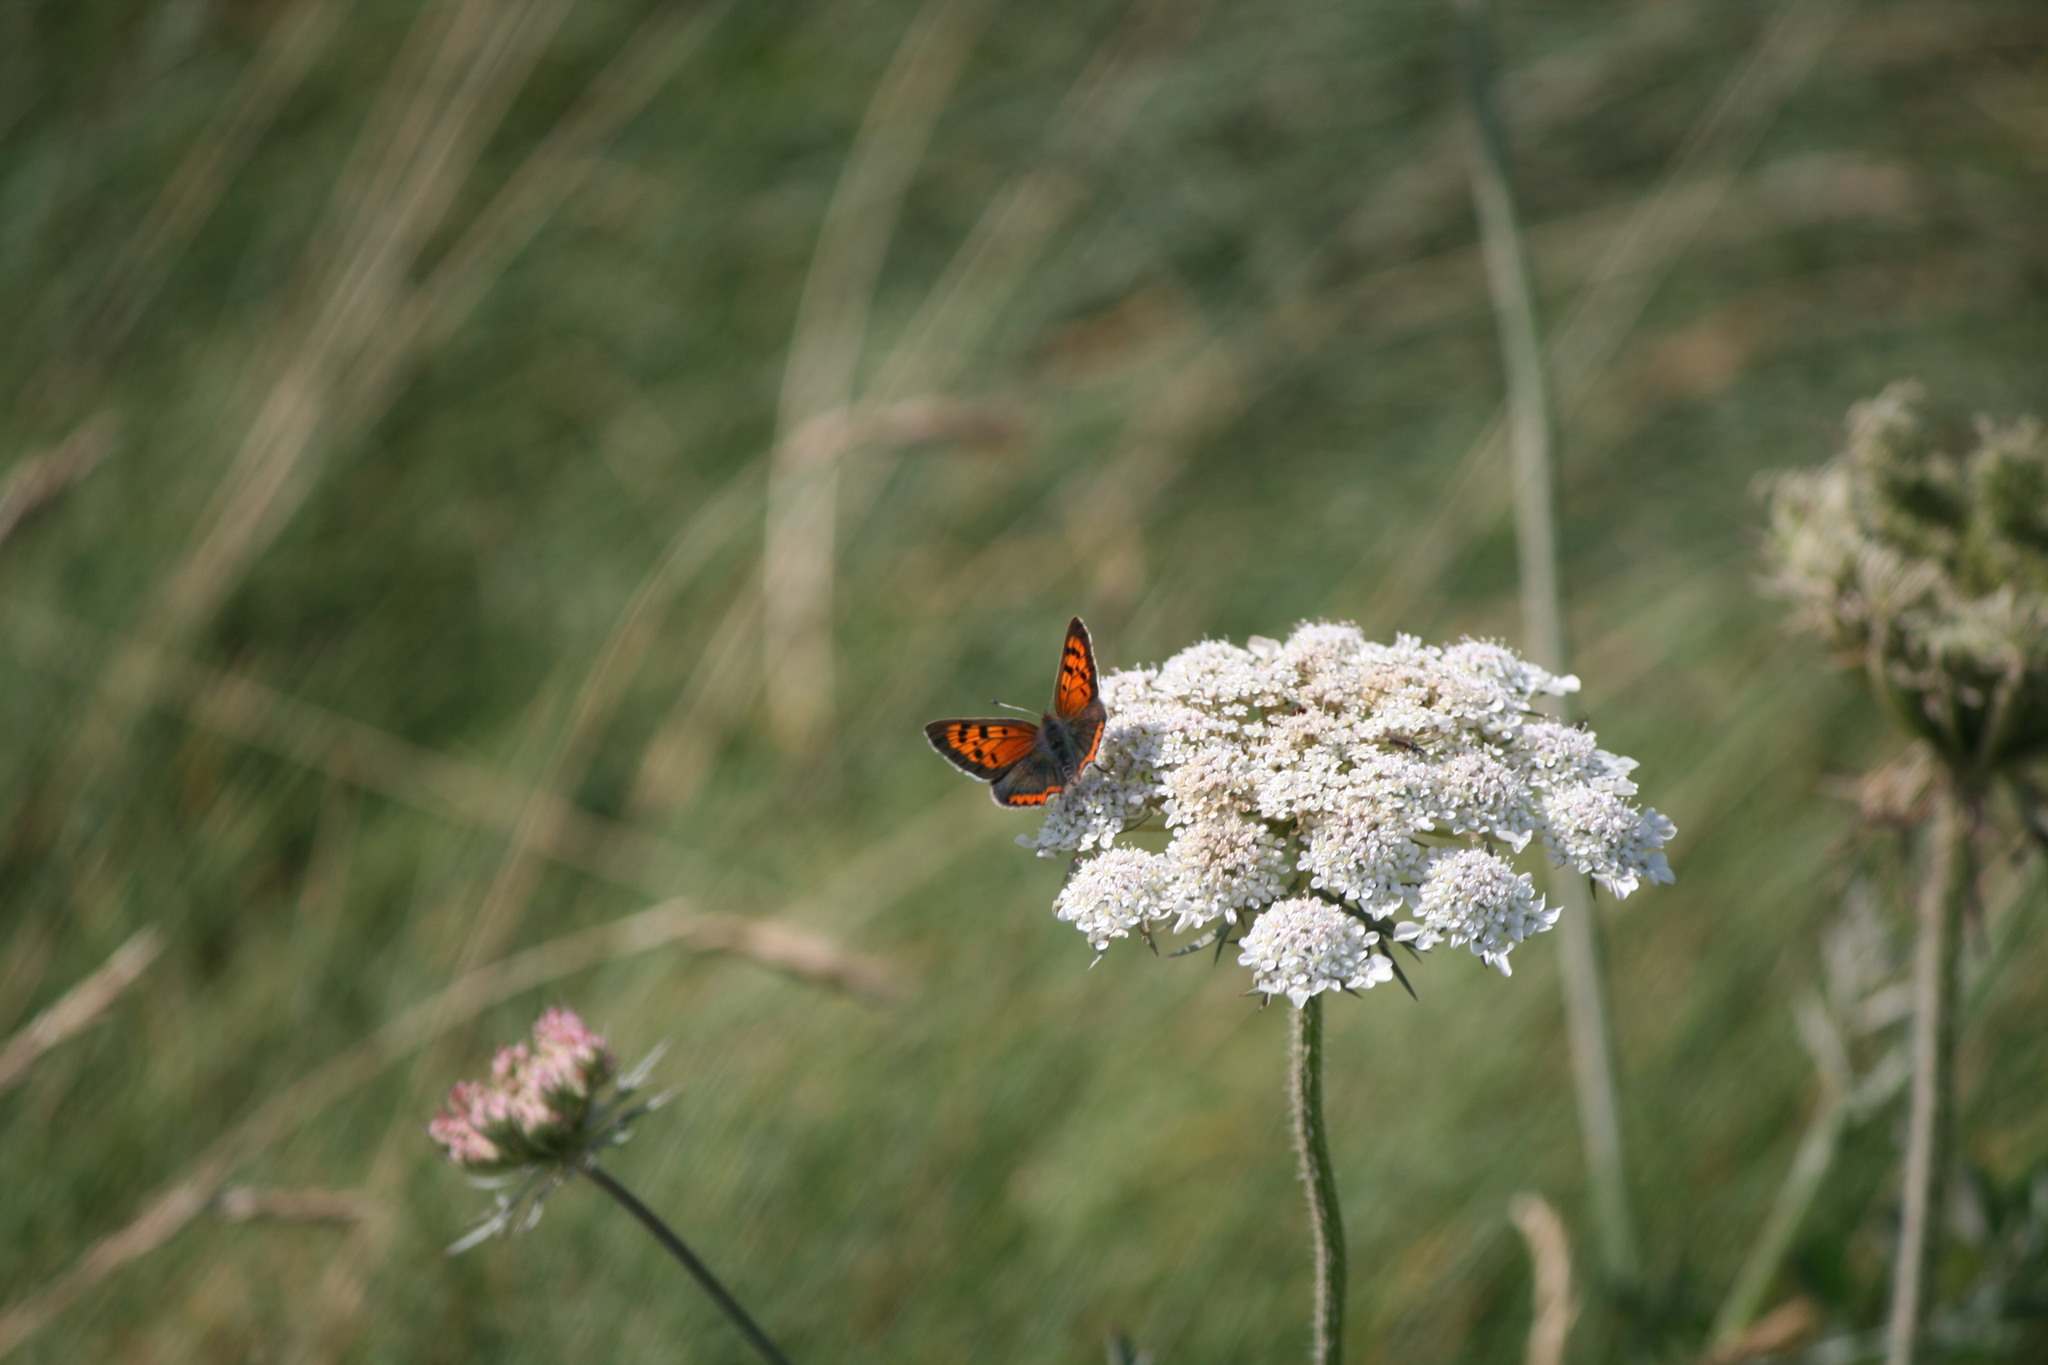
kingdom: Animalia
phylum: Arthropoda
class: Insecta
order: Lepidoptera
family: Lycaenidae
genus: Lycaena
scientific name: Lycaena phlaeas
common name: Small copper
